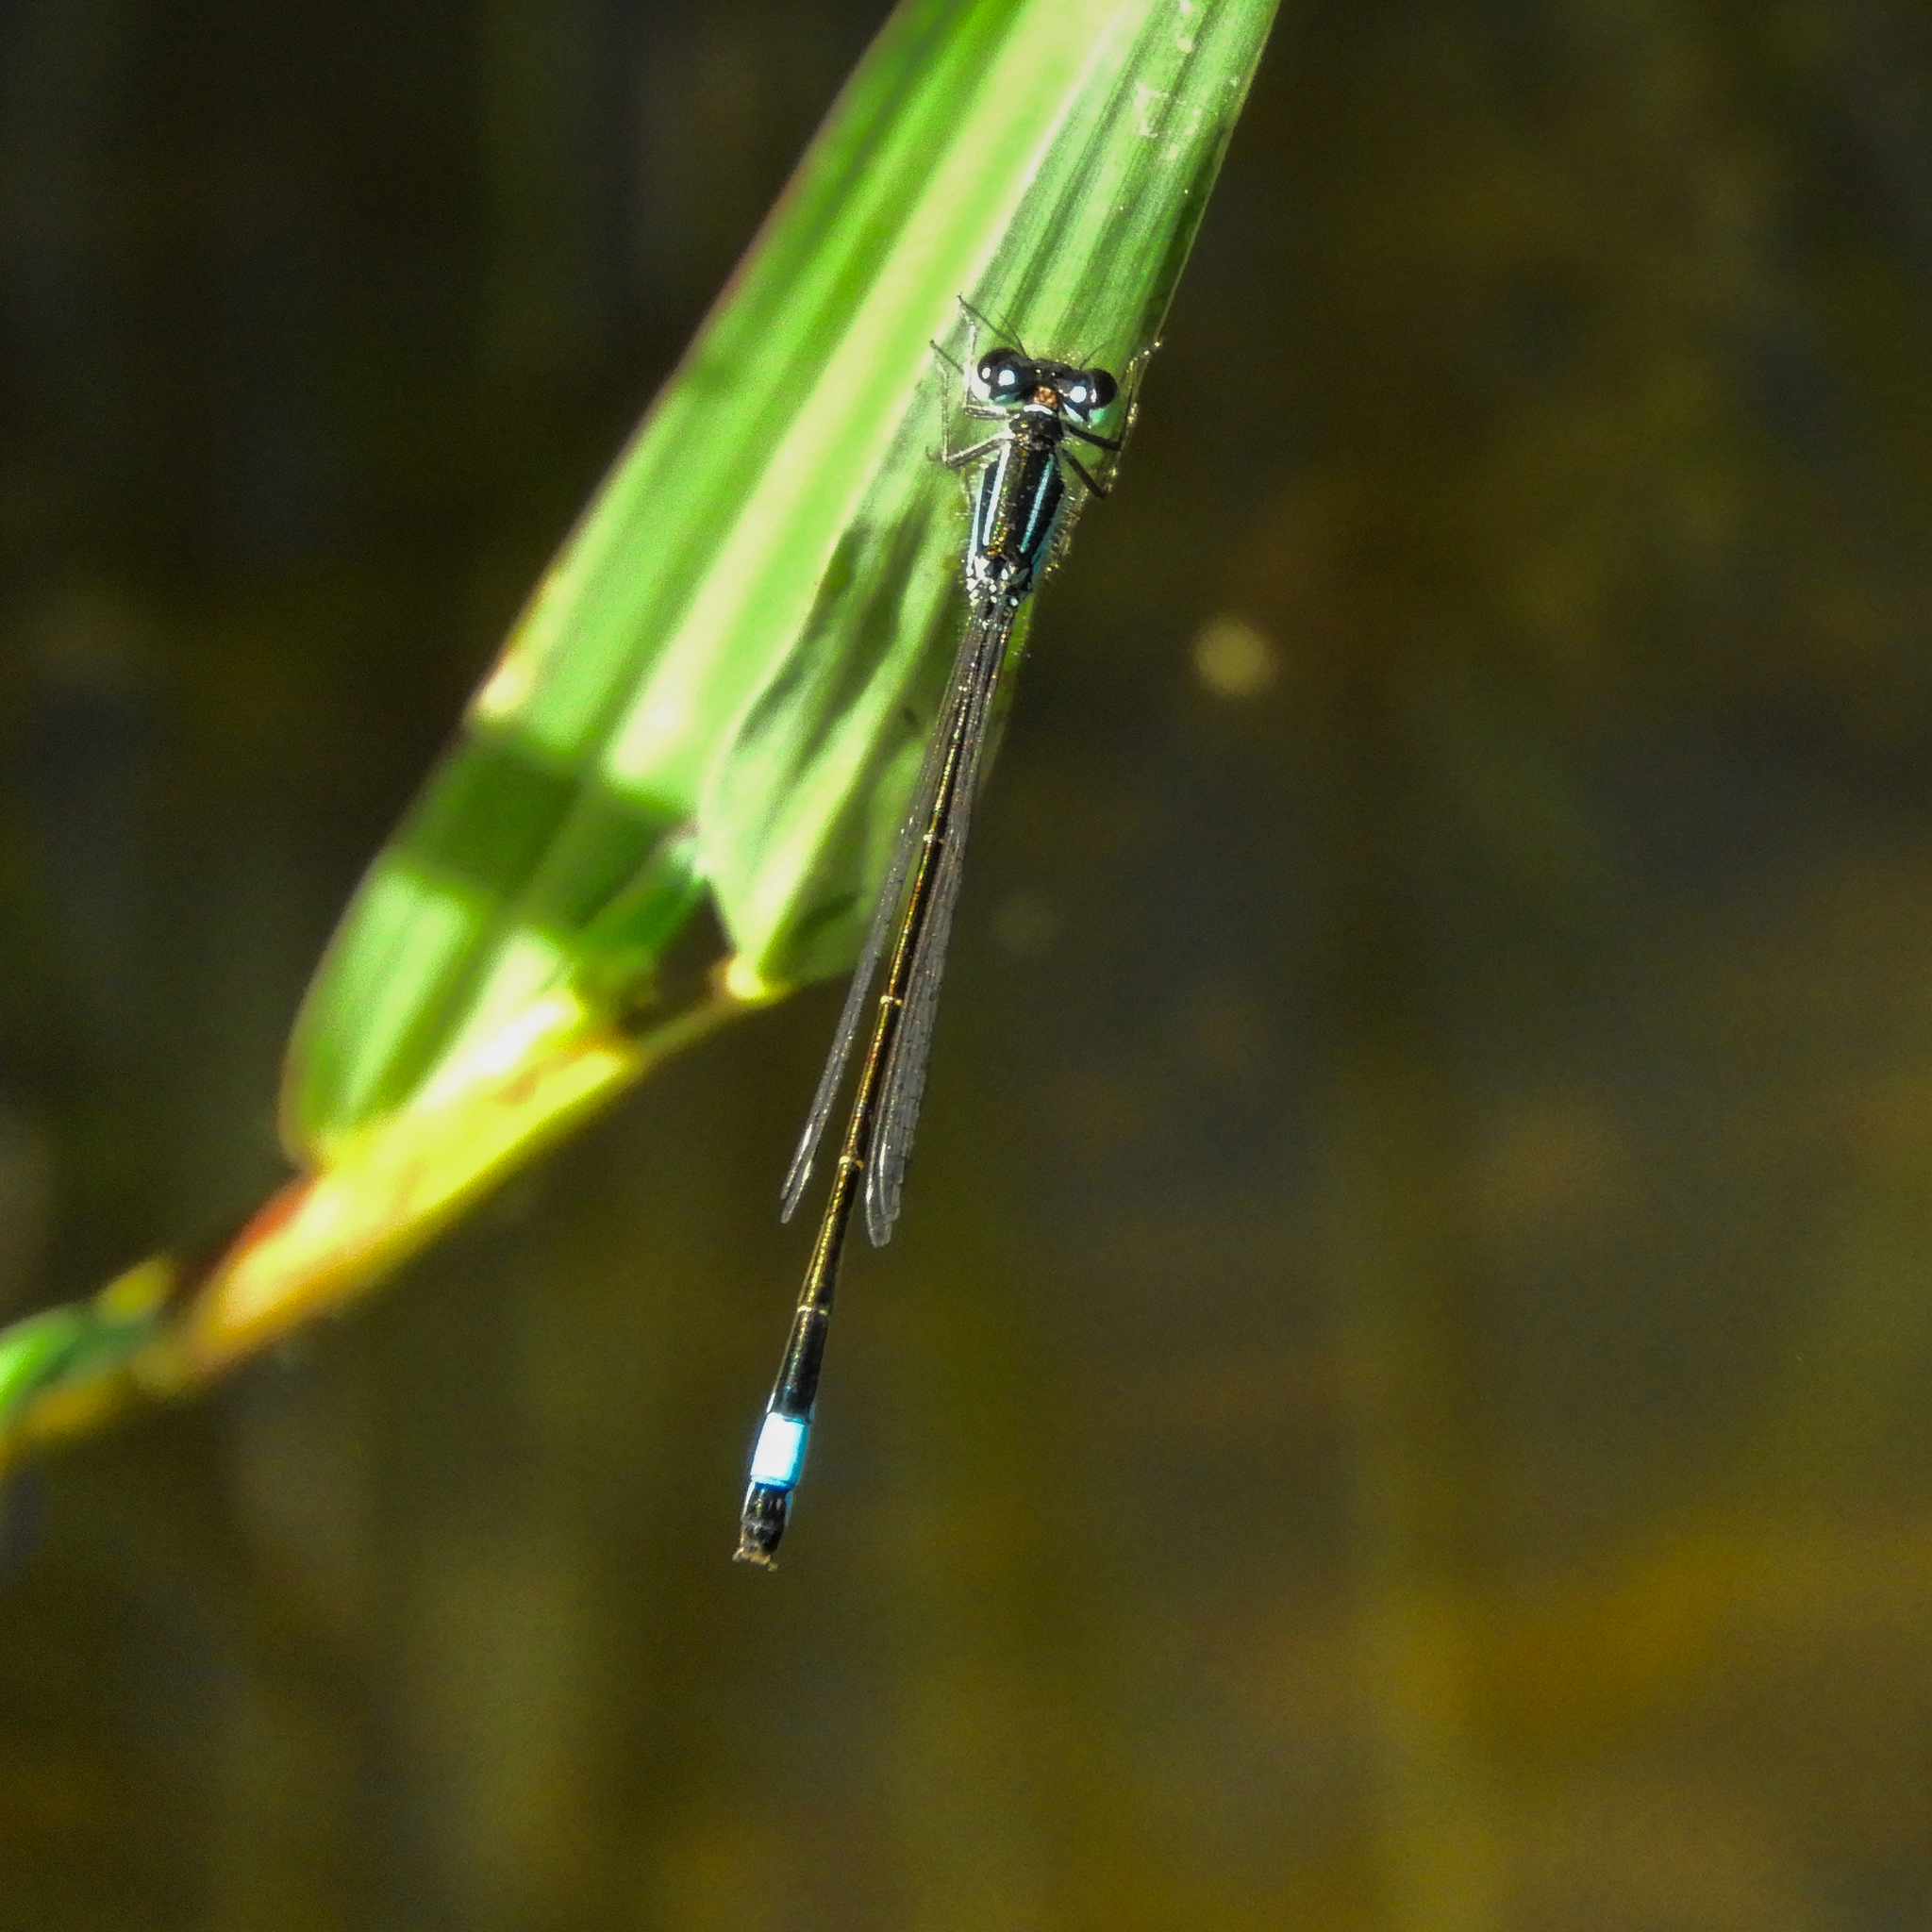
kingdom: Animalia
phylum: Arthropoda
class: Insecta
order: Odonata
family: Coenagrionidae
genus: Ischnura
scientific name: Ischnura elegans
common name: Blue-tailed damselfly
